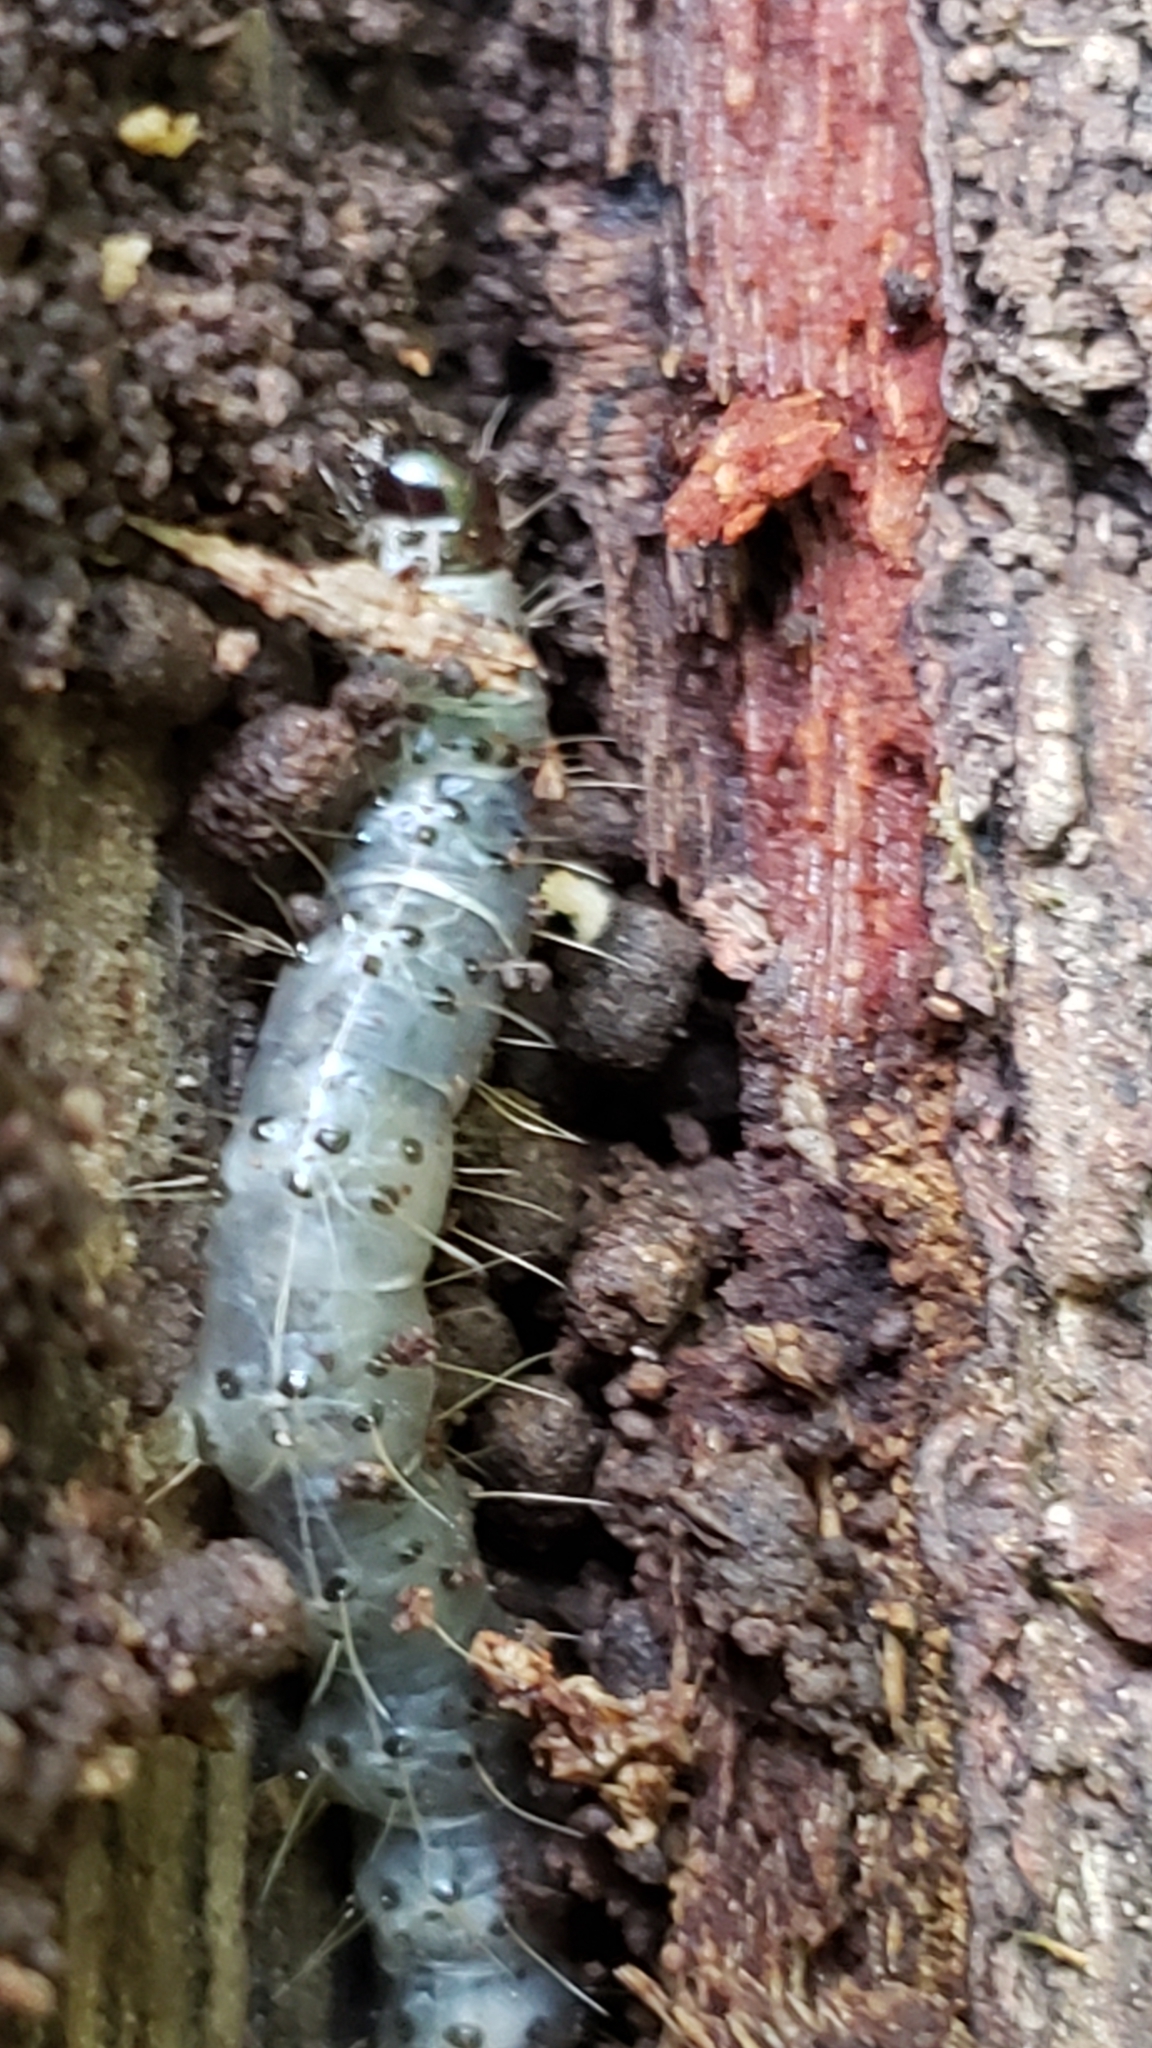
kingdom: Animalia
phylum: Arthropoda
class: Insecta
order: Lepidoptera
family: Erebidae
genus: Scolecocampa
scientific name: Scolecocampa liburna
